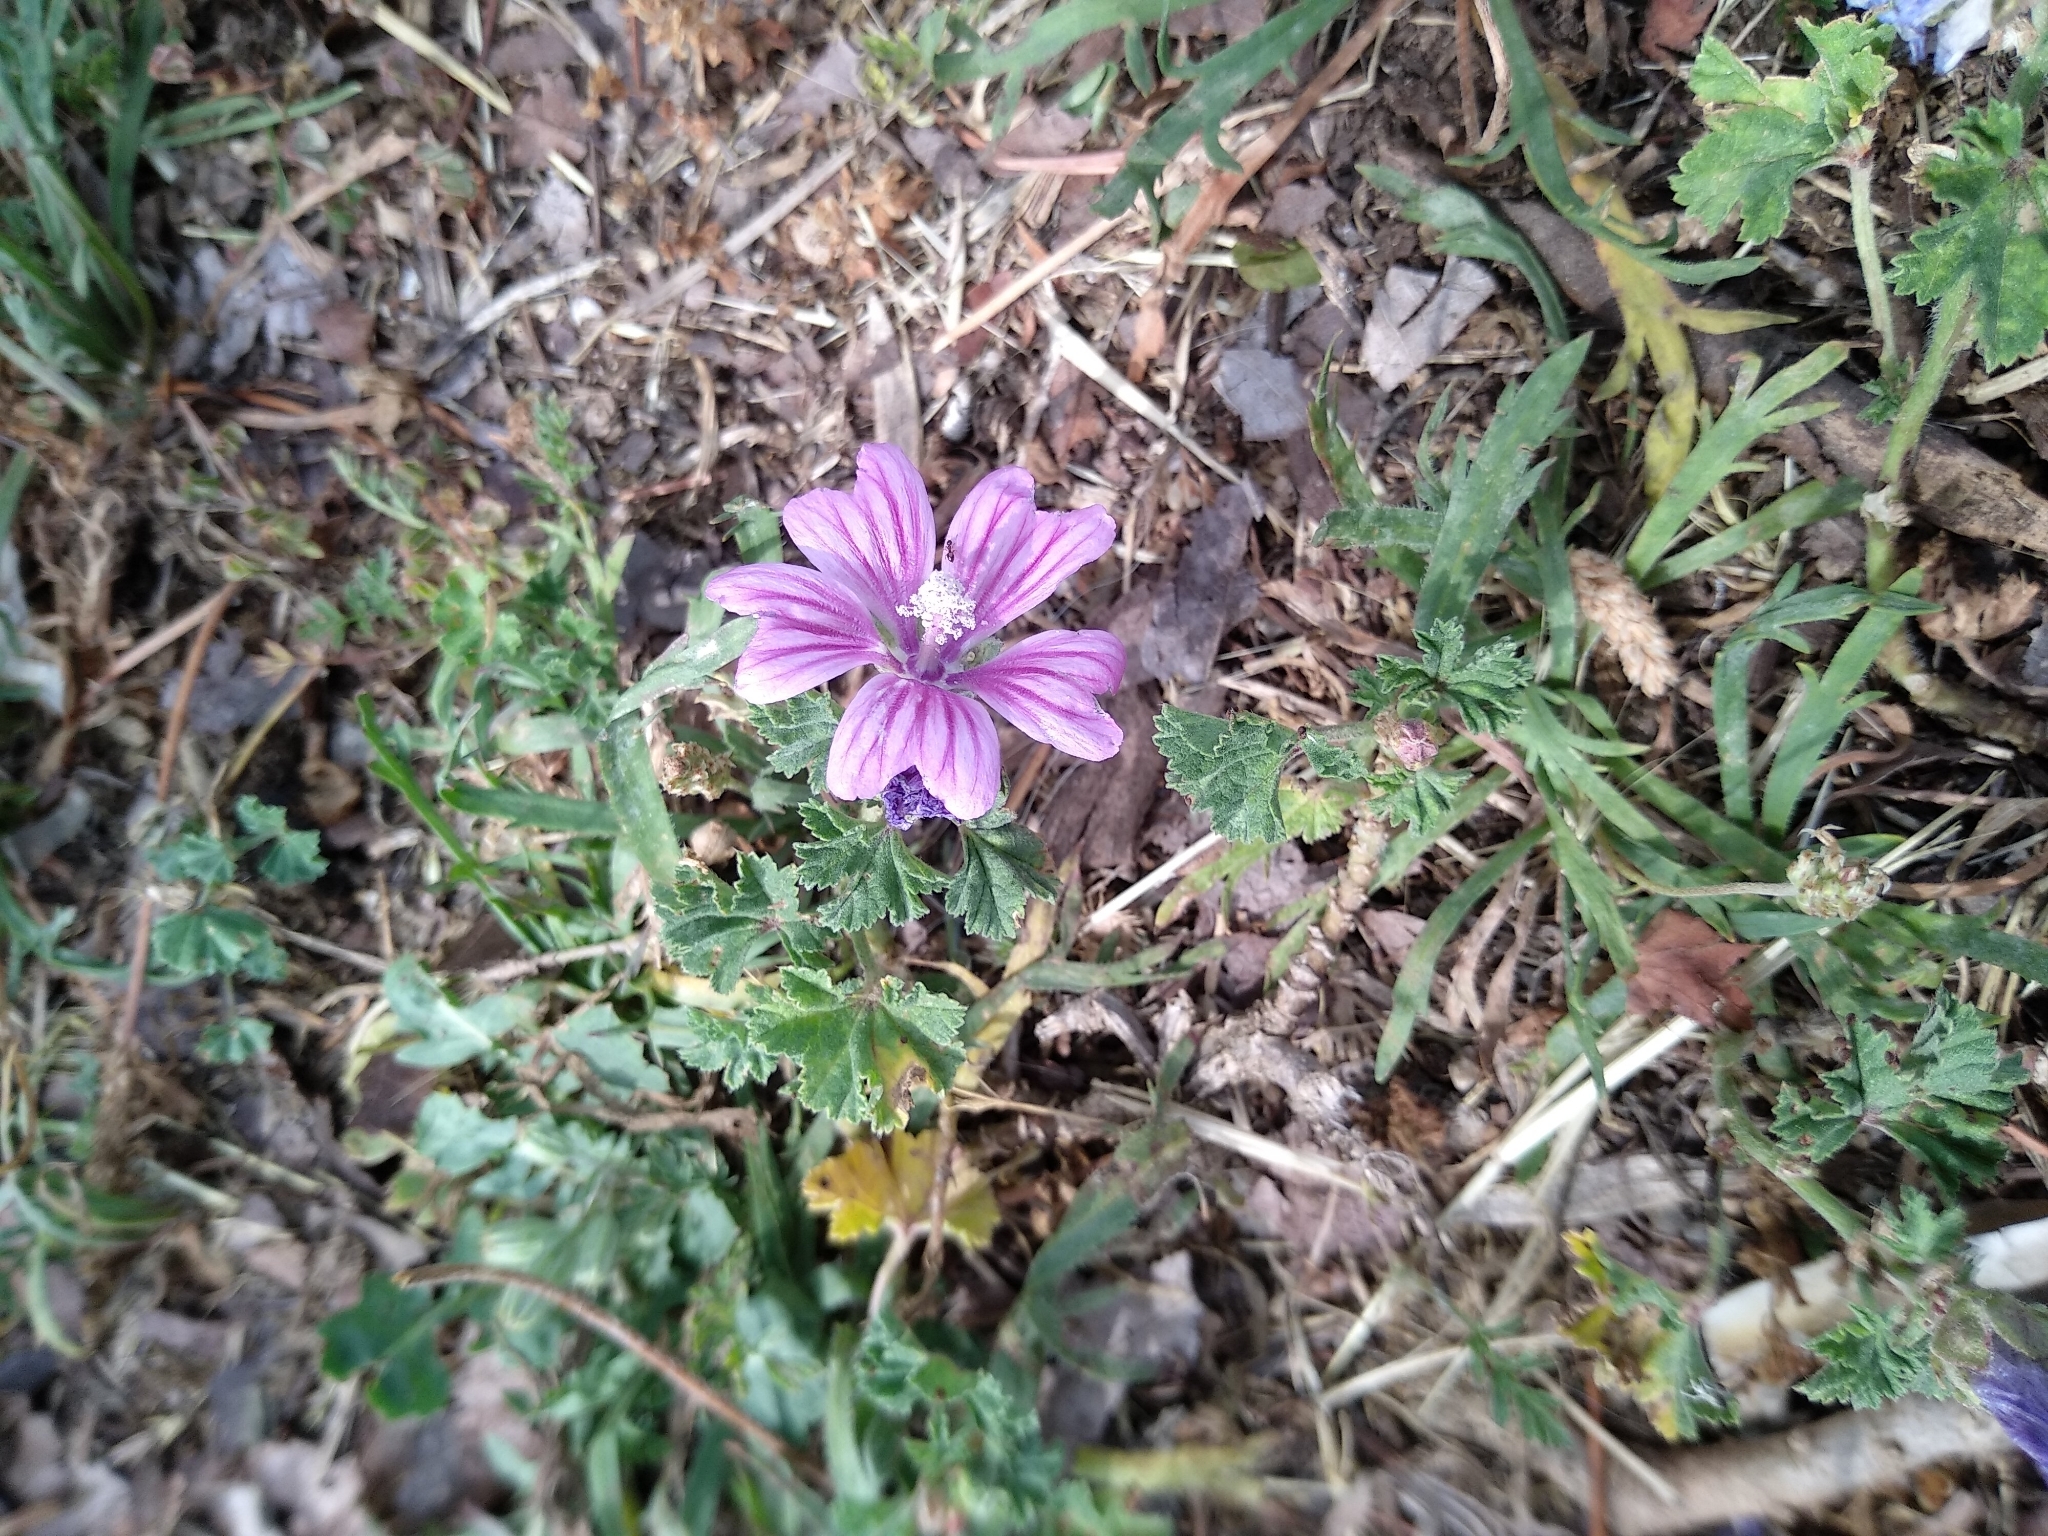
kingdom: Plantae
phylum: Tracheophyta
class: Magnoliopsida
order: Malvales
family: Malvaceae
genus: Malva
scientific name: Malva sylvestris
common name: Common mallow
